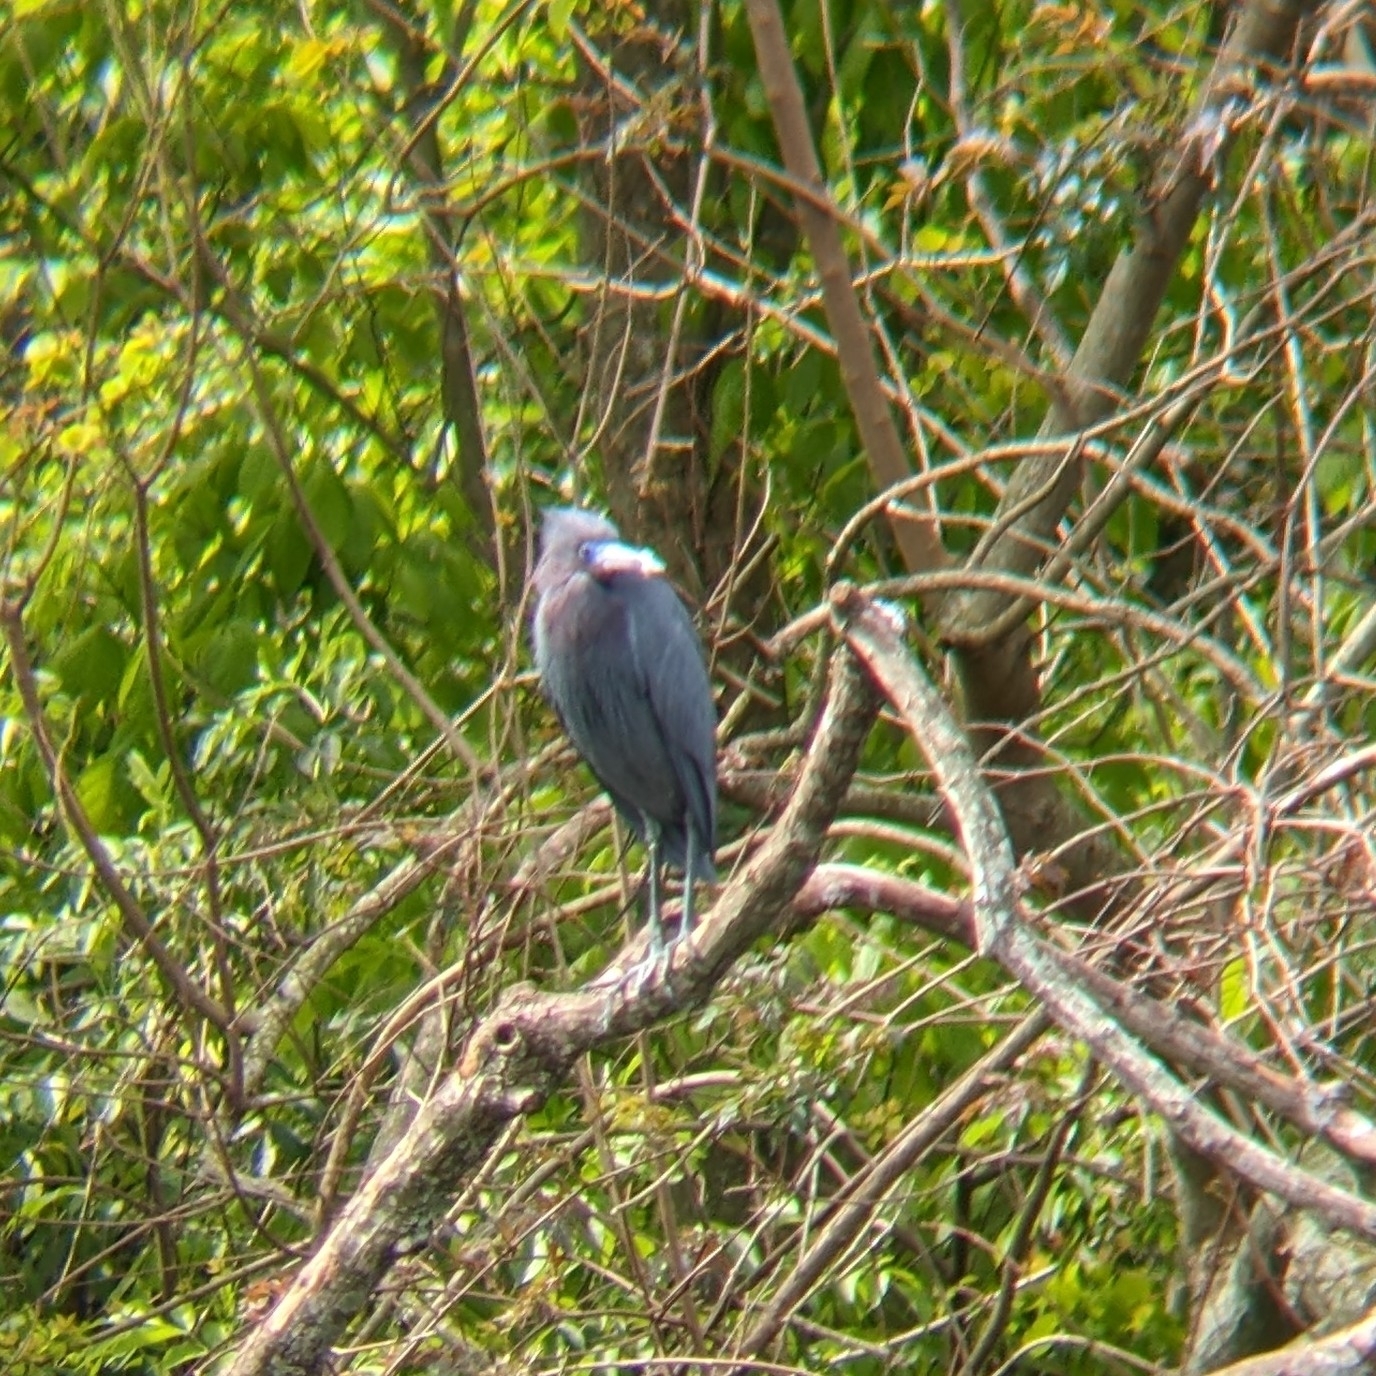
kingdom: Animalia
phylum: Chordata
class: Aves
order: Pelecaniformes
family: Ardeidae
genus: Egretta
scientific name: Egretta caerulea
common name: Little blue heron
